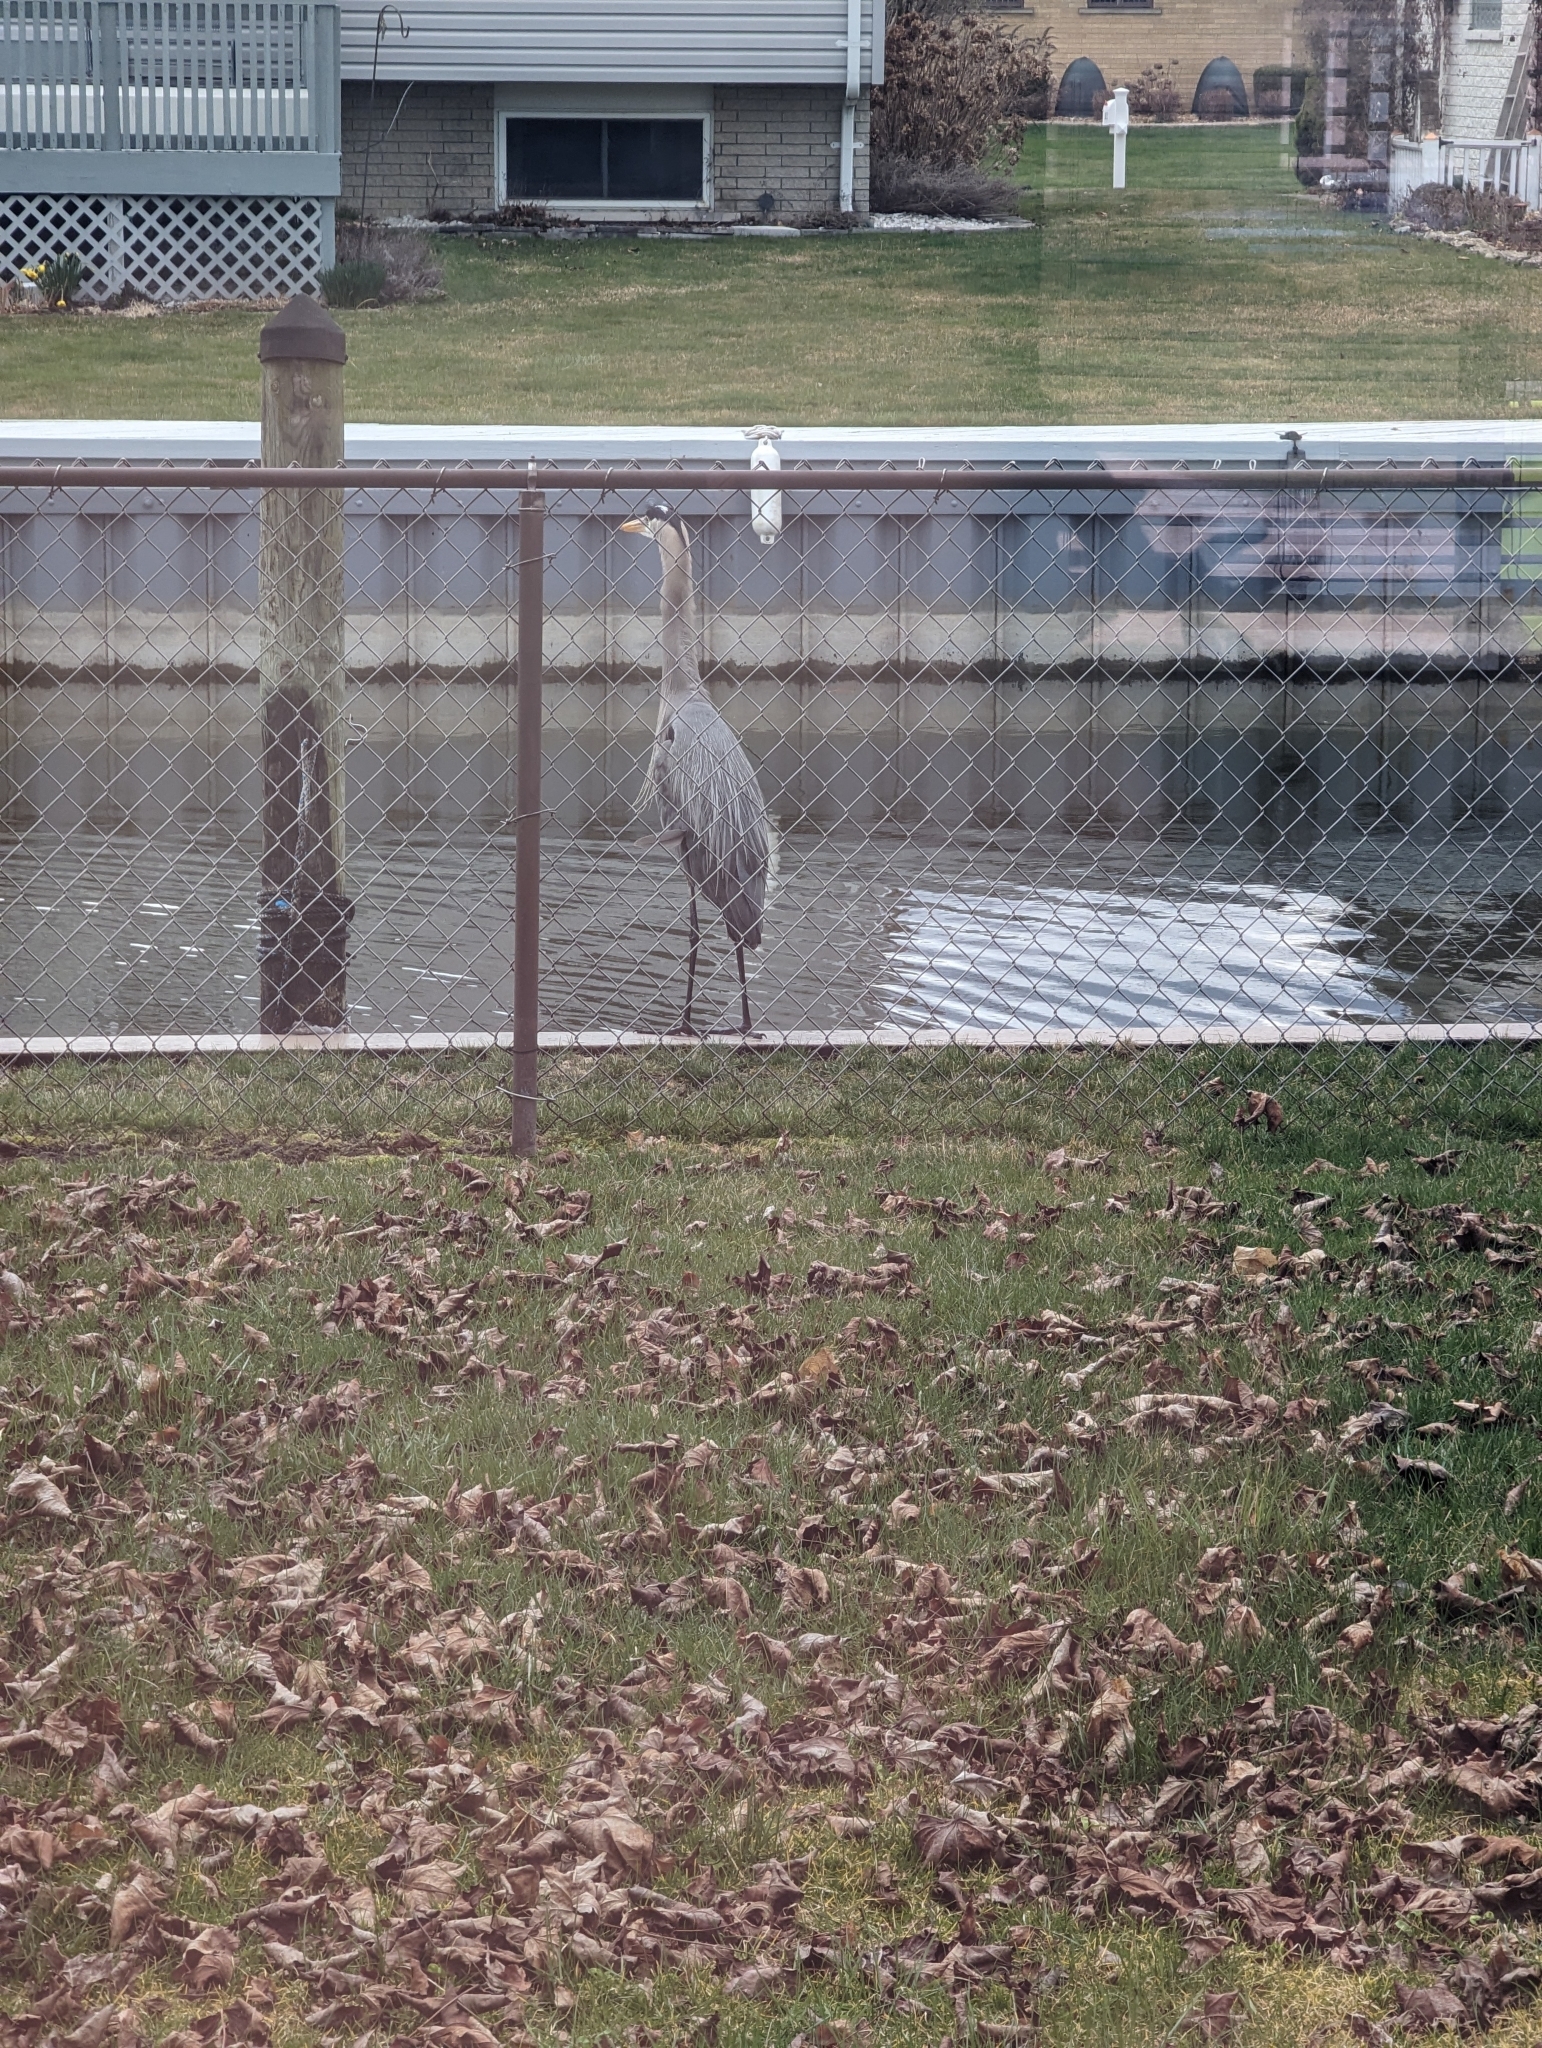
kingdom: Animalia
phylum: Chordata
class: Aves
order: Pelecaniformes
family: Ardeidae
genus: Ardea
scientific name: Ardea herodias
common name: Great blue heron
